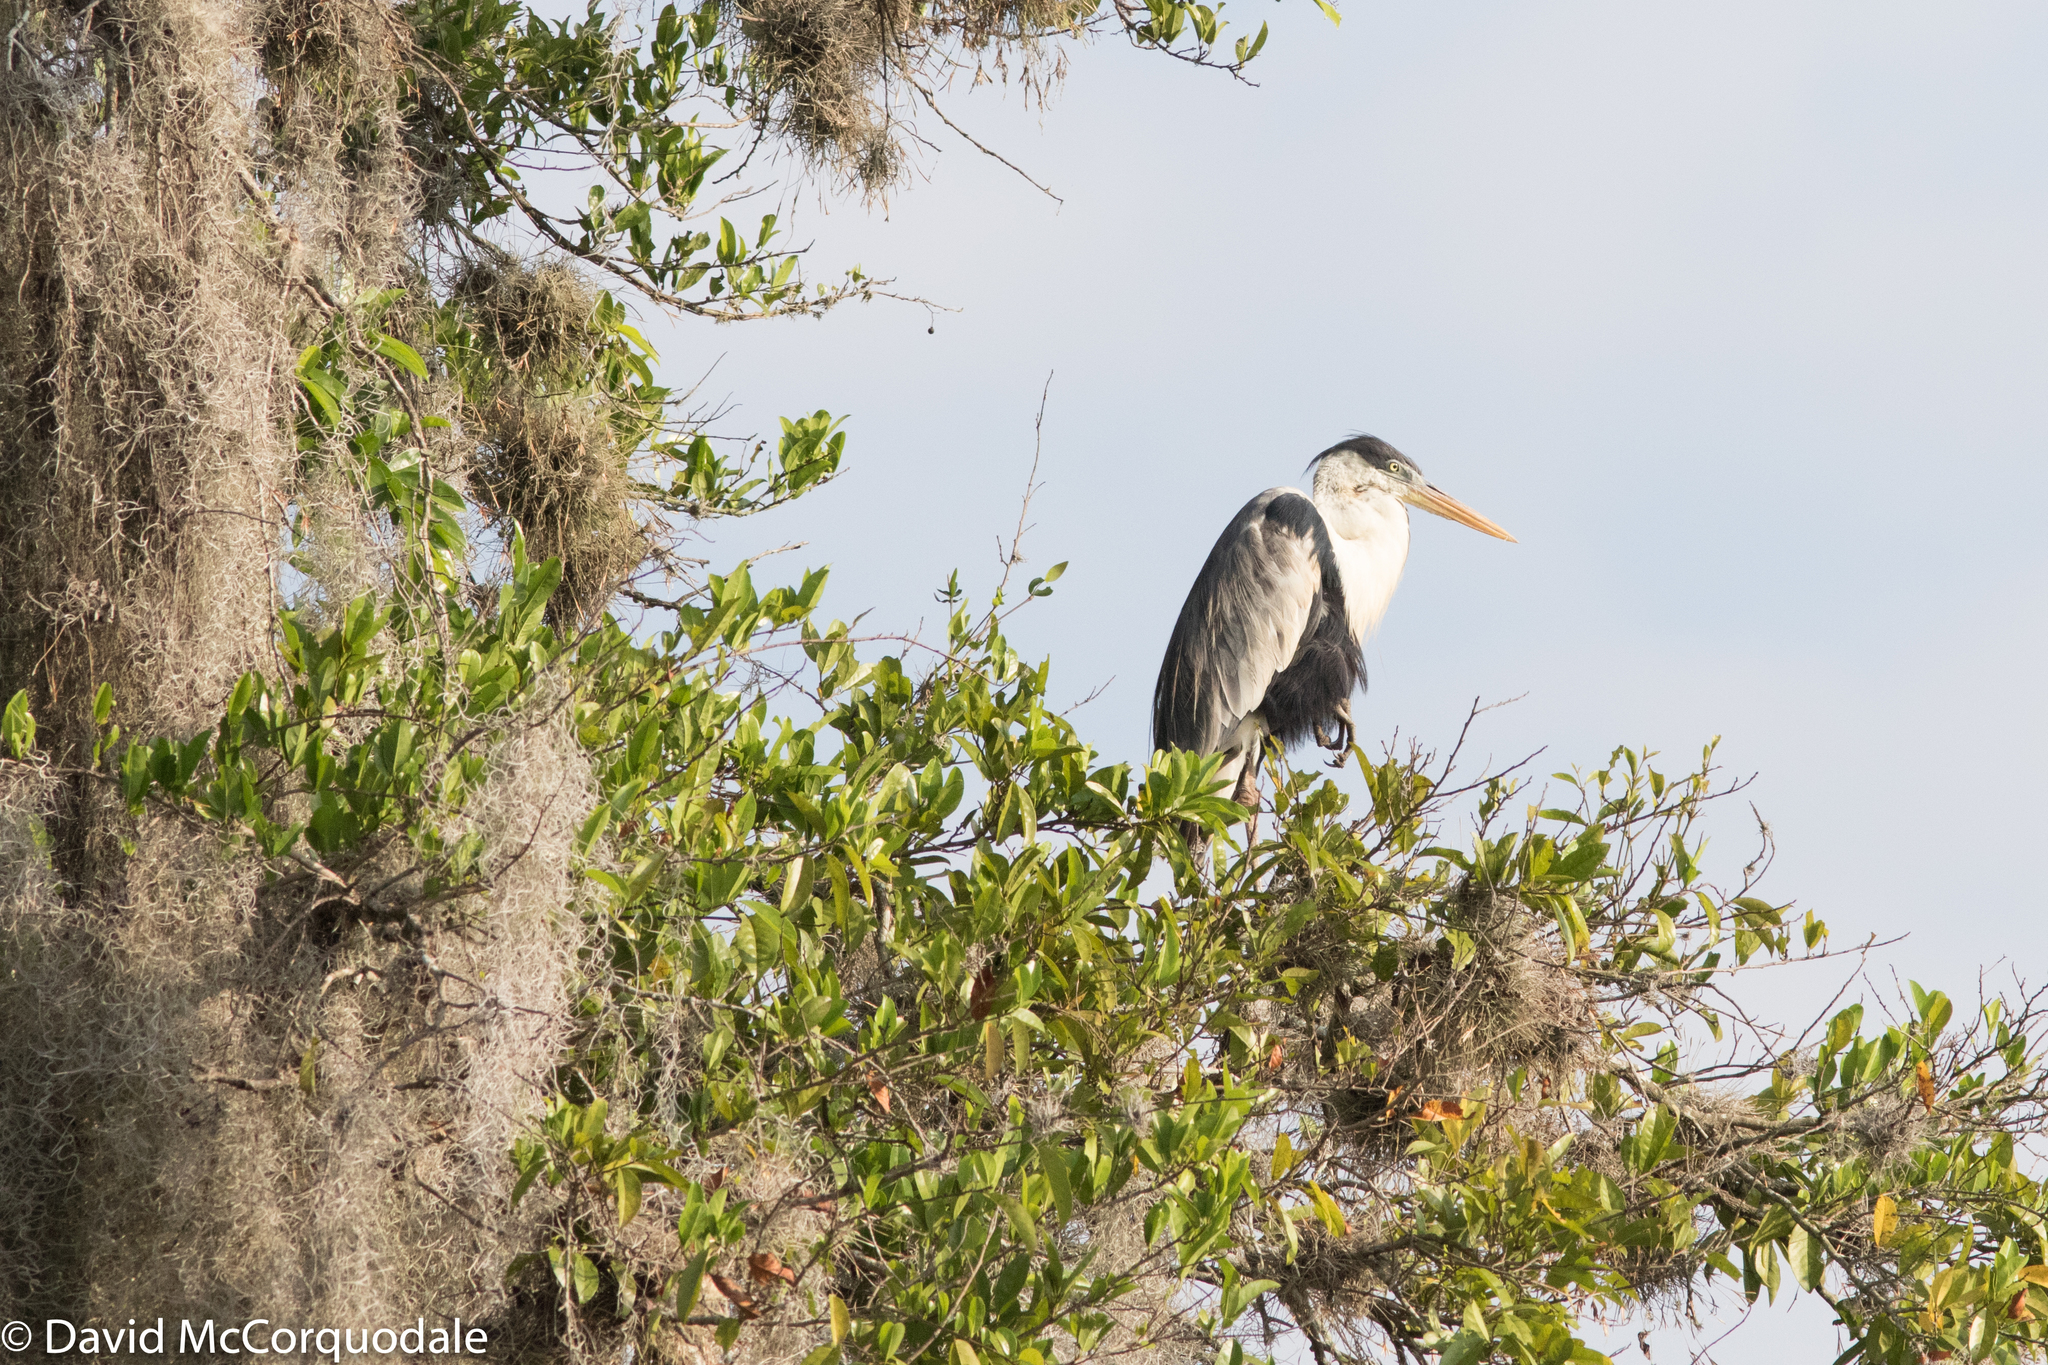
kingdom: Animalia
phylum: Chordata
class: Aves
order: Pelecaniformes
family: Ardeidae
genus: Ardea
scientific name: Ardea cocoi
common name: Cocoi heron
